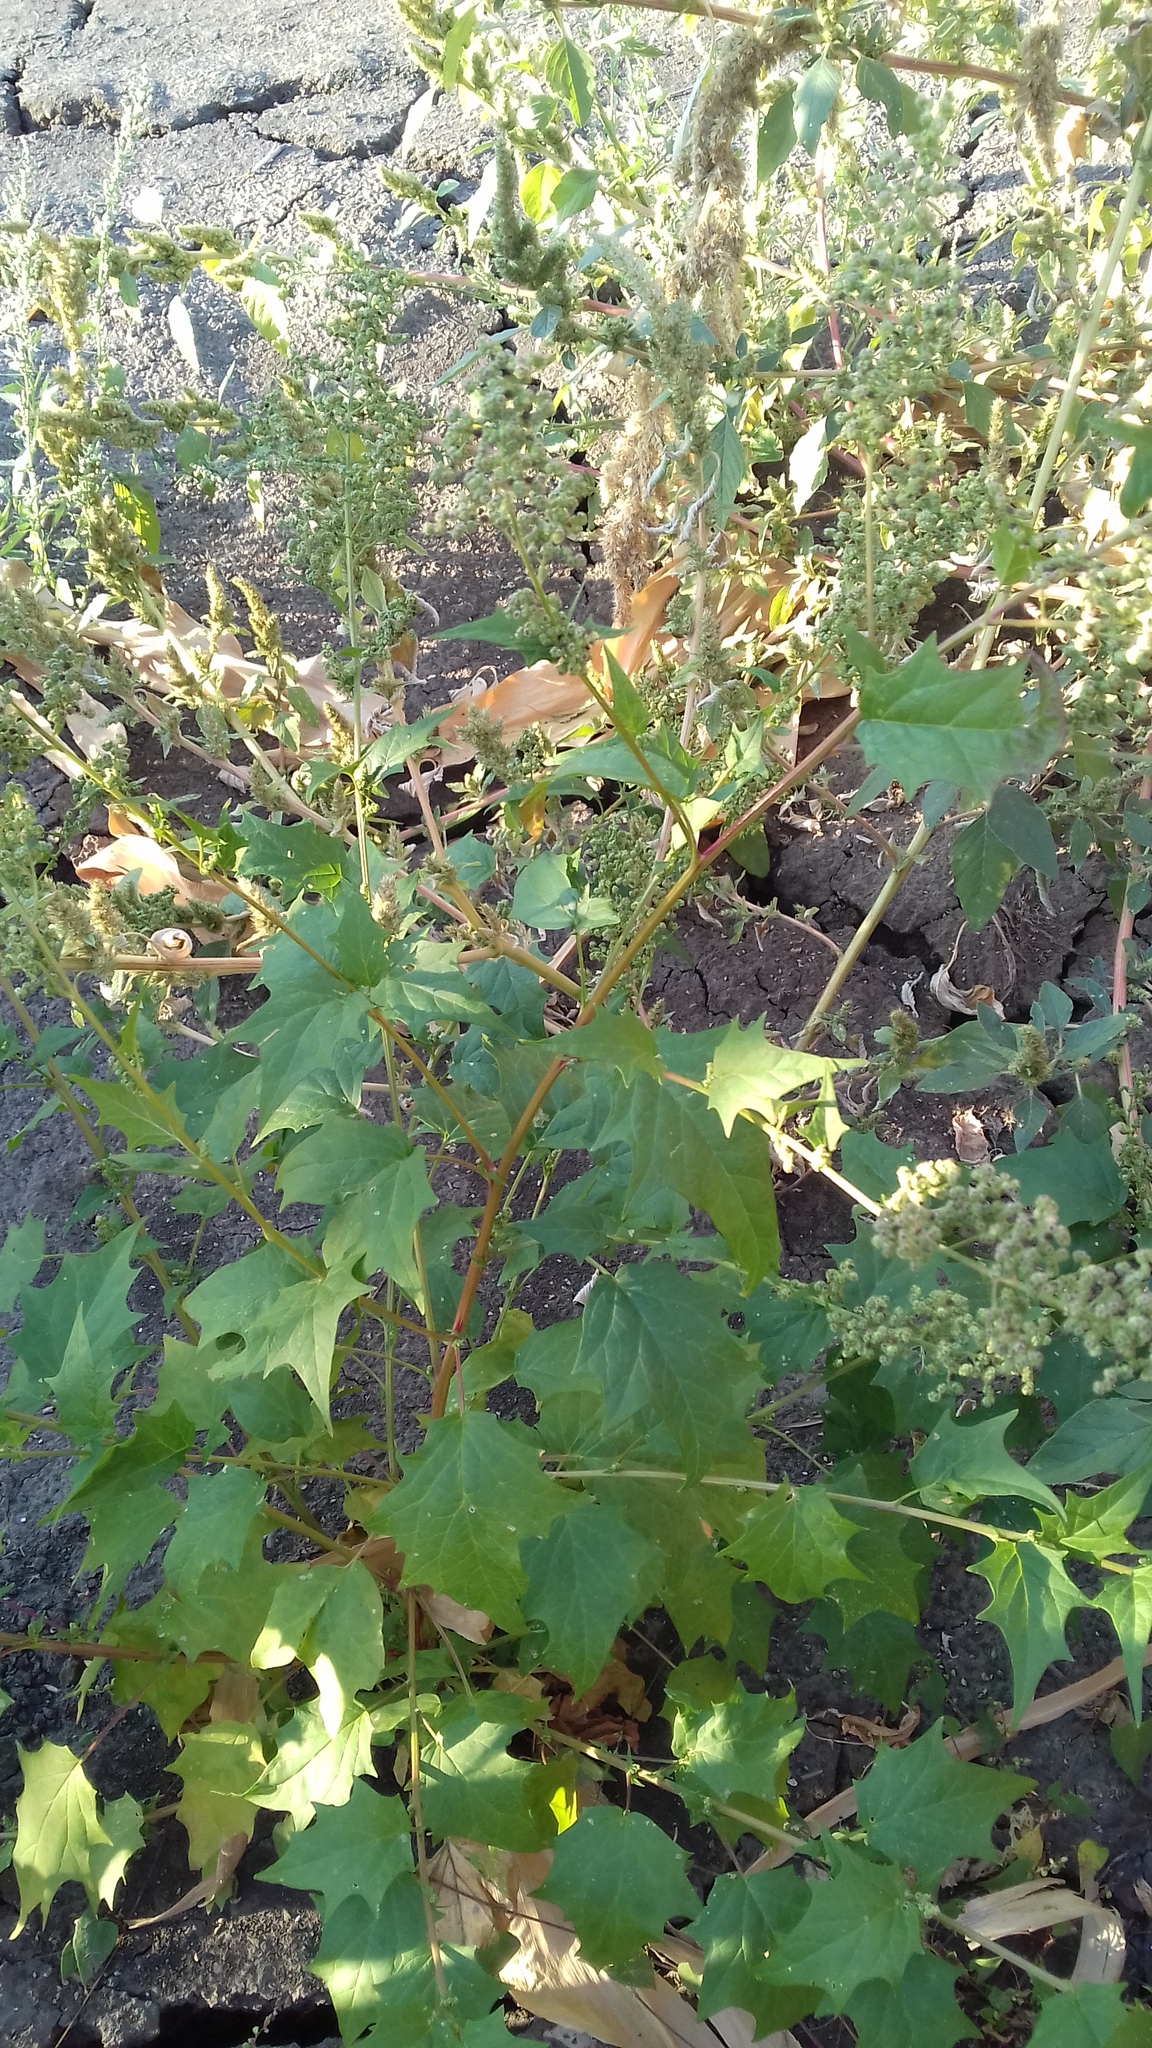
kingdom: Plantae
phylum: Tracheophyta
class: Magnoliopsida
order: Caryophyllales
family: Amaranthaceae
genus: Chenopodiastrum
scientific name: Chenopodiastrum hybridum
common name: Mapleleaf goosefoot
